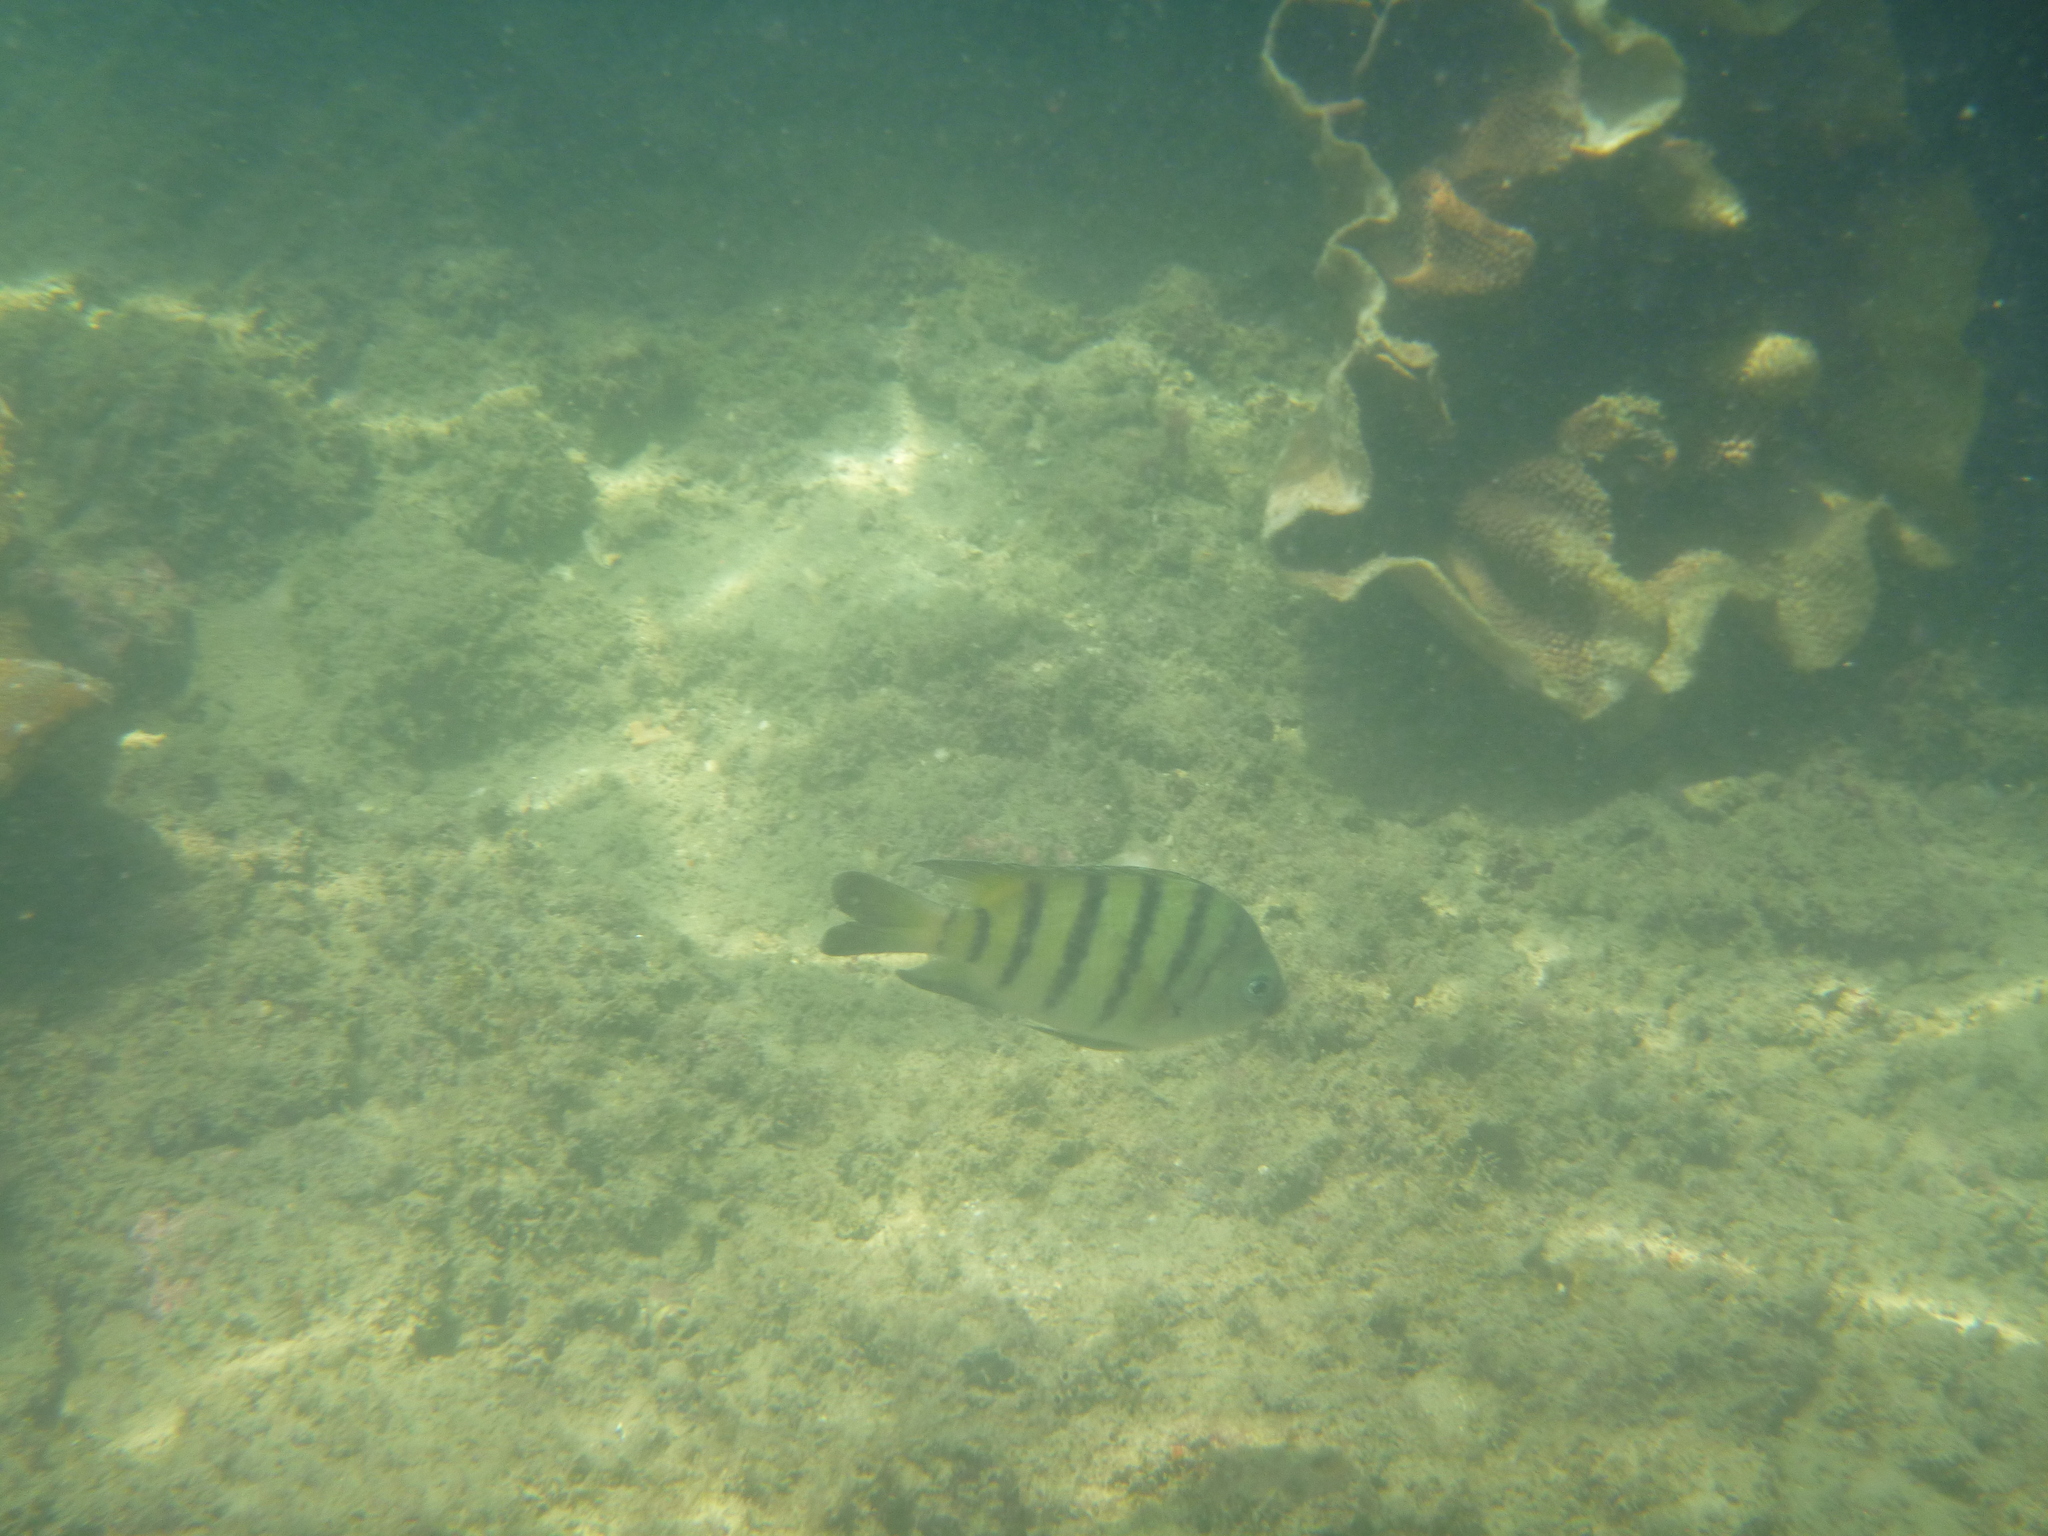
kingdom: Animalia
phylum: Chordata
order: Perciformes
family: Pomacentridae
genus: Abudefduf
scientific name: Abudefduf bengalensis
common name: Bengal sergeant
